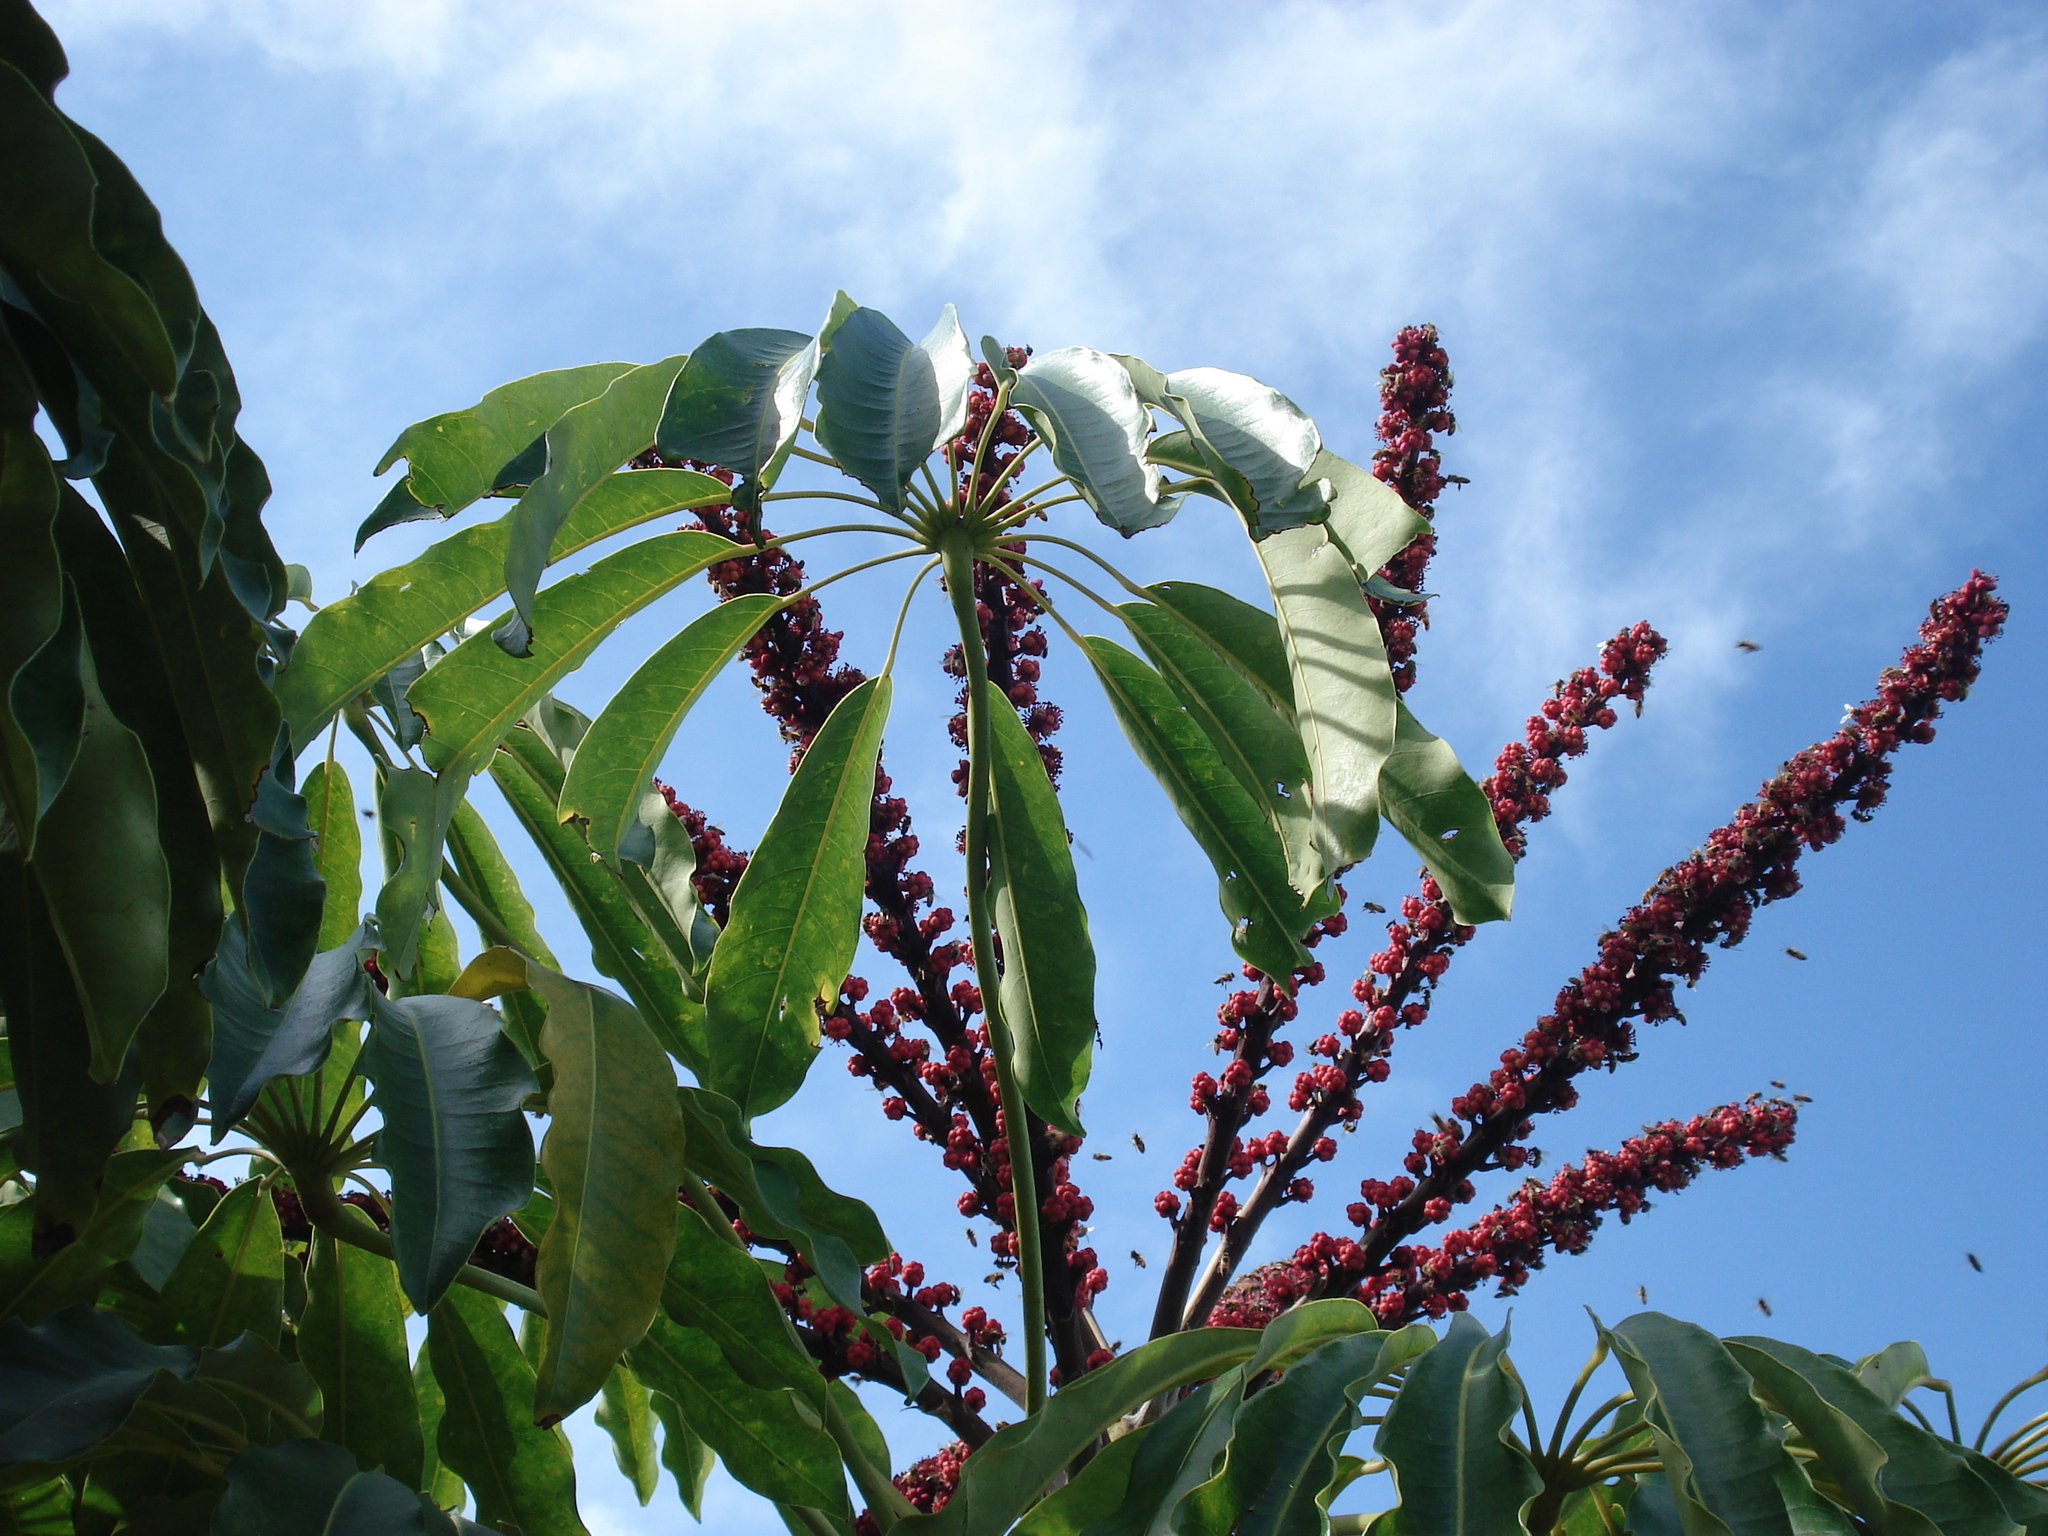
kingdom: Plantae
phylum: Tracheophyta
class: Magnoliopsida
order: Apiales
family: Araliaceae
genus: Heptapleurum
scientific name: Heptapleurum actinophyllum
